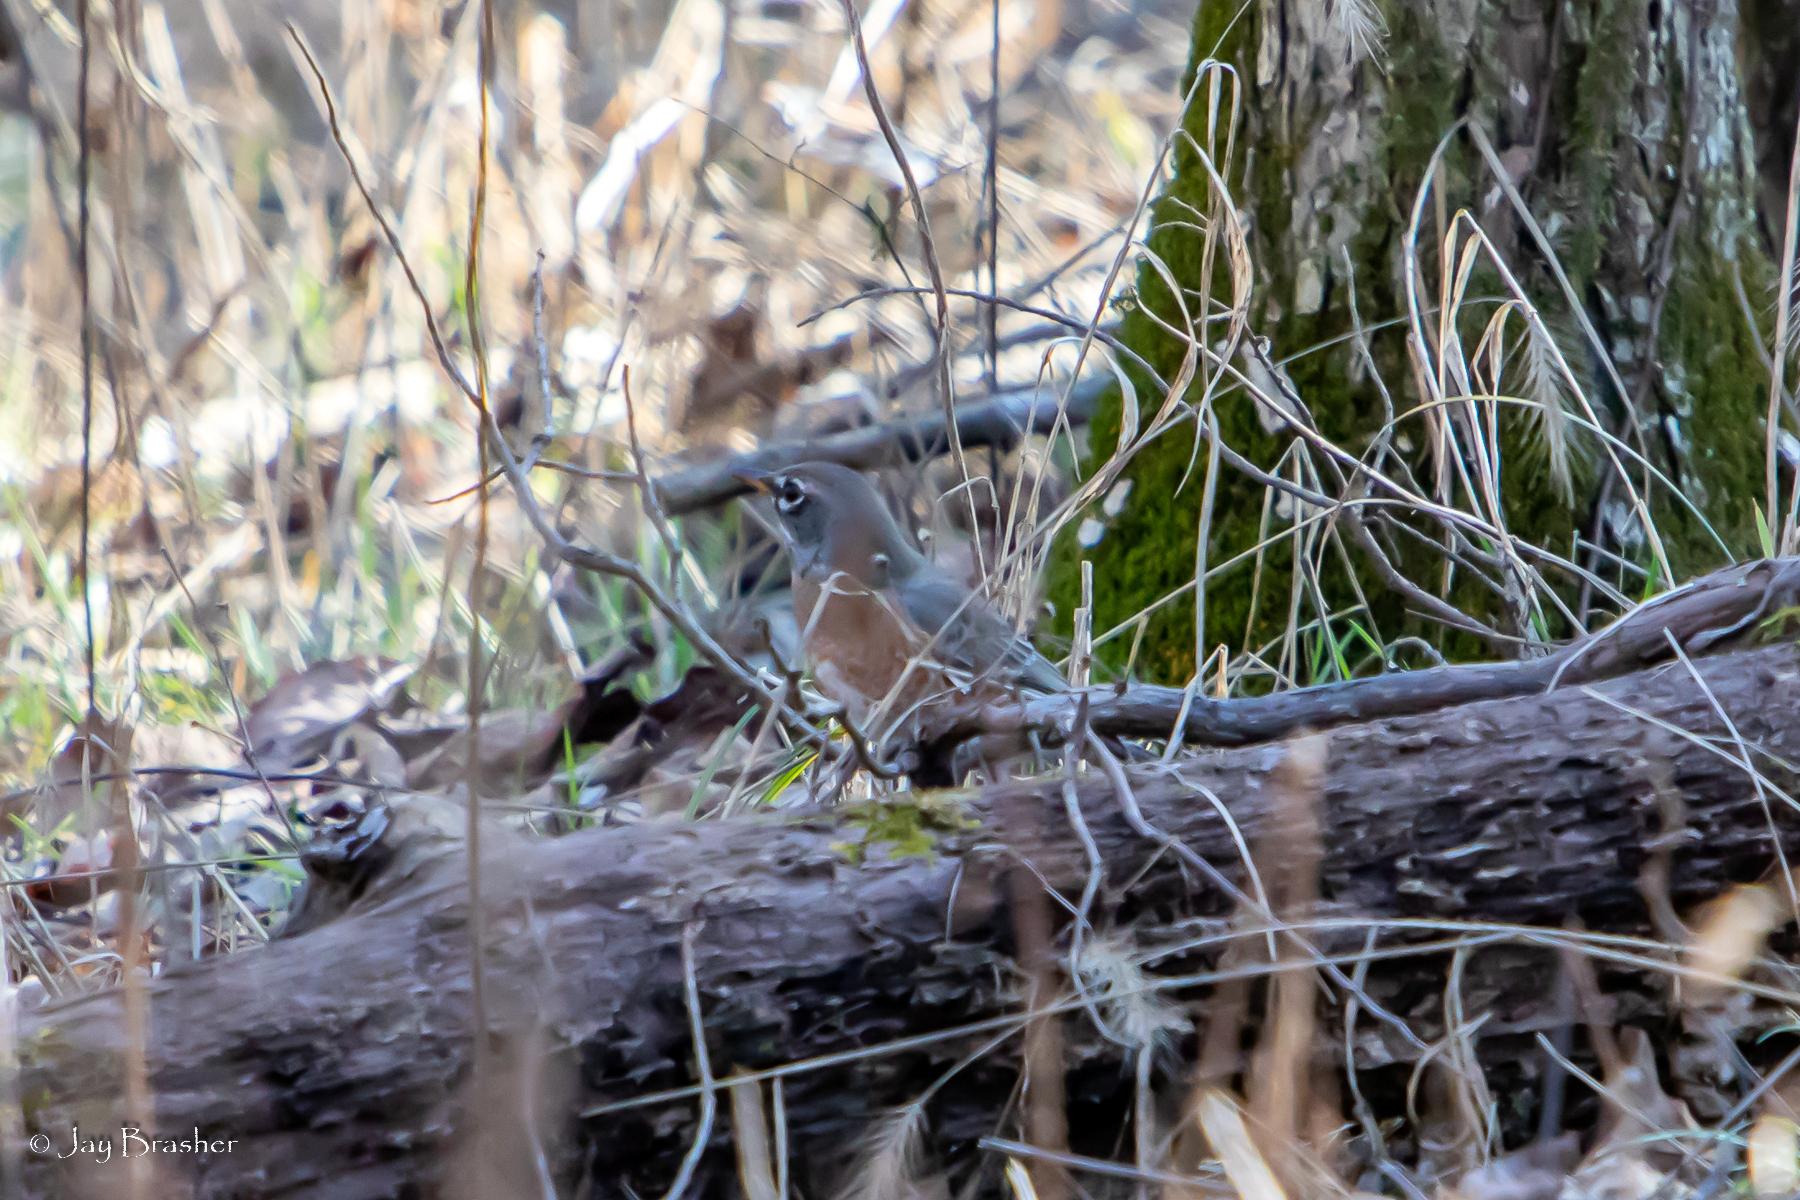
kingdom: Animalia
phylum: Chordata
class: Aves
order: Passeriformes
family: Turdidae
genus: Turdus
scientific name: Turdus migratorius
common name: American robin
